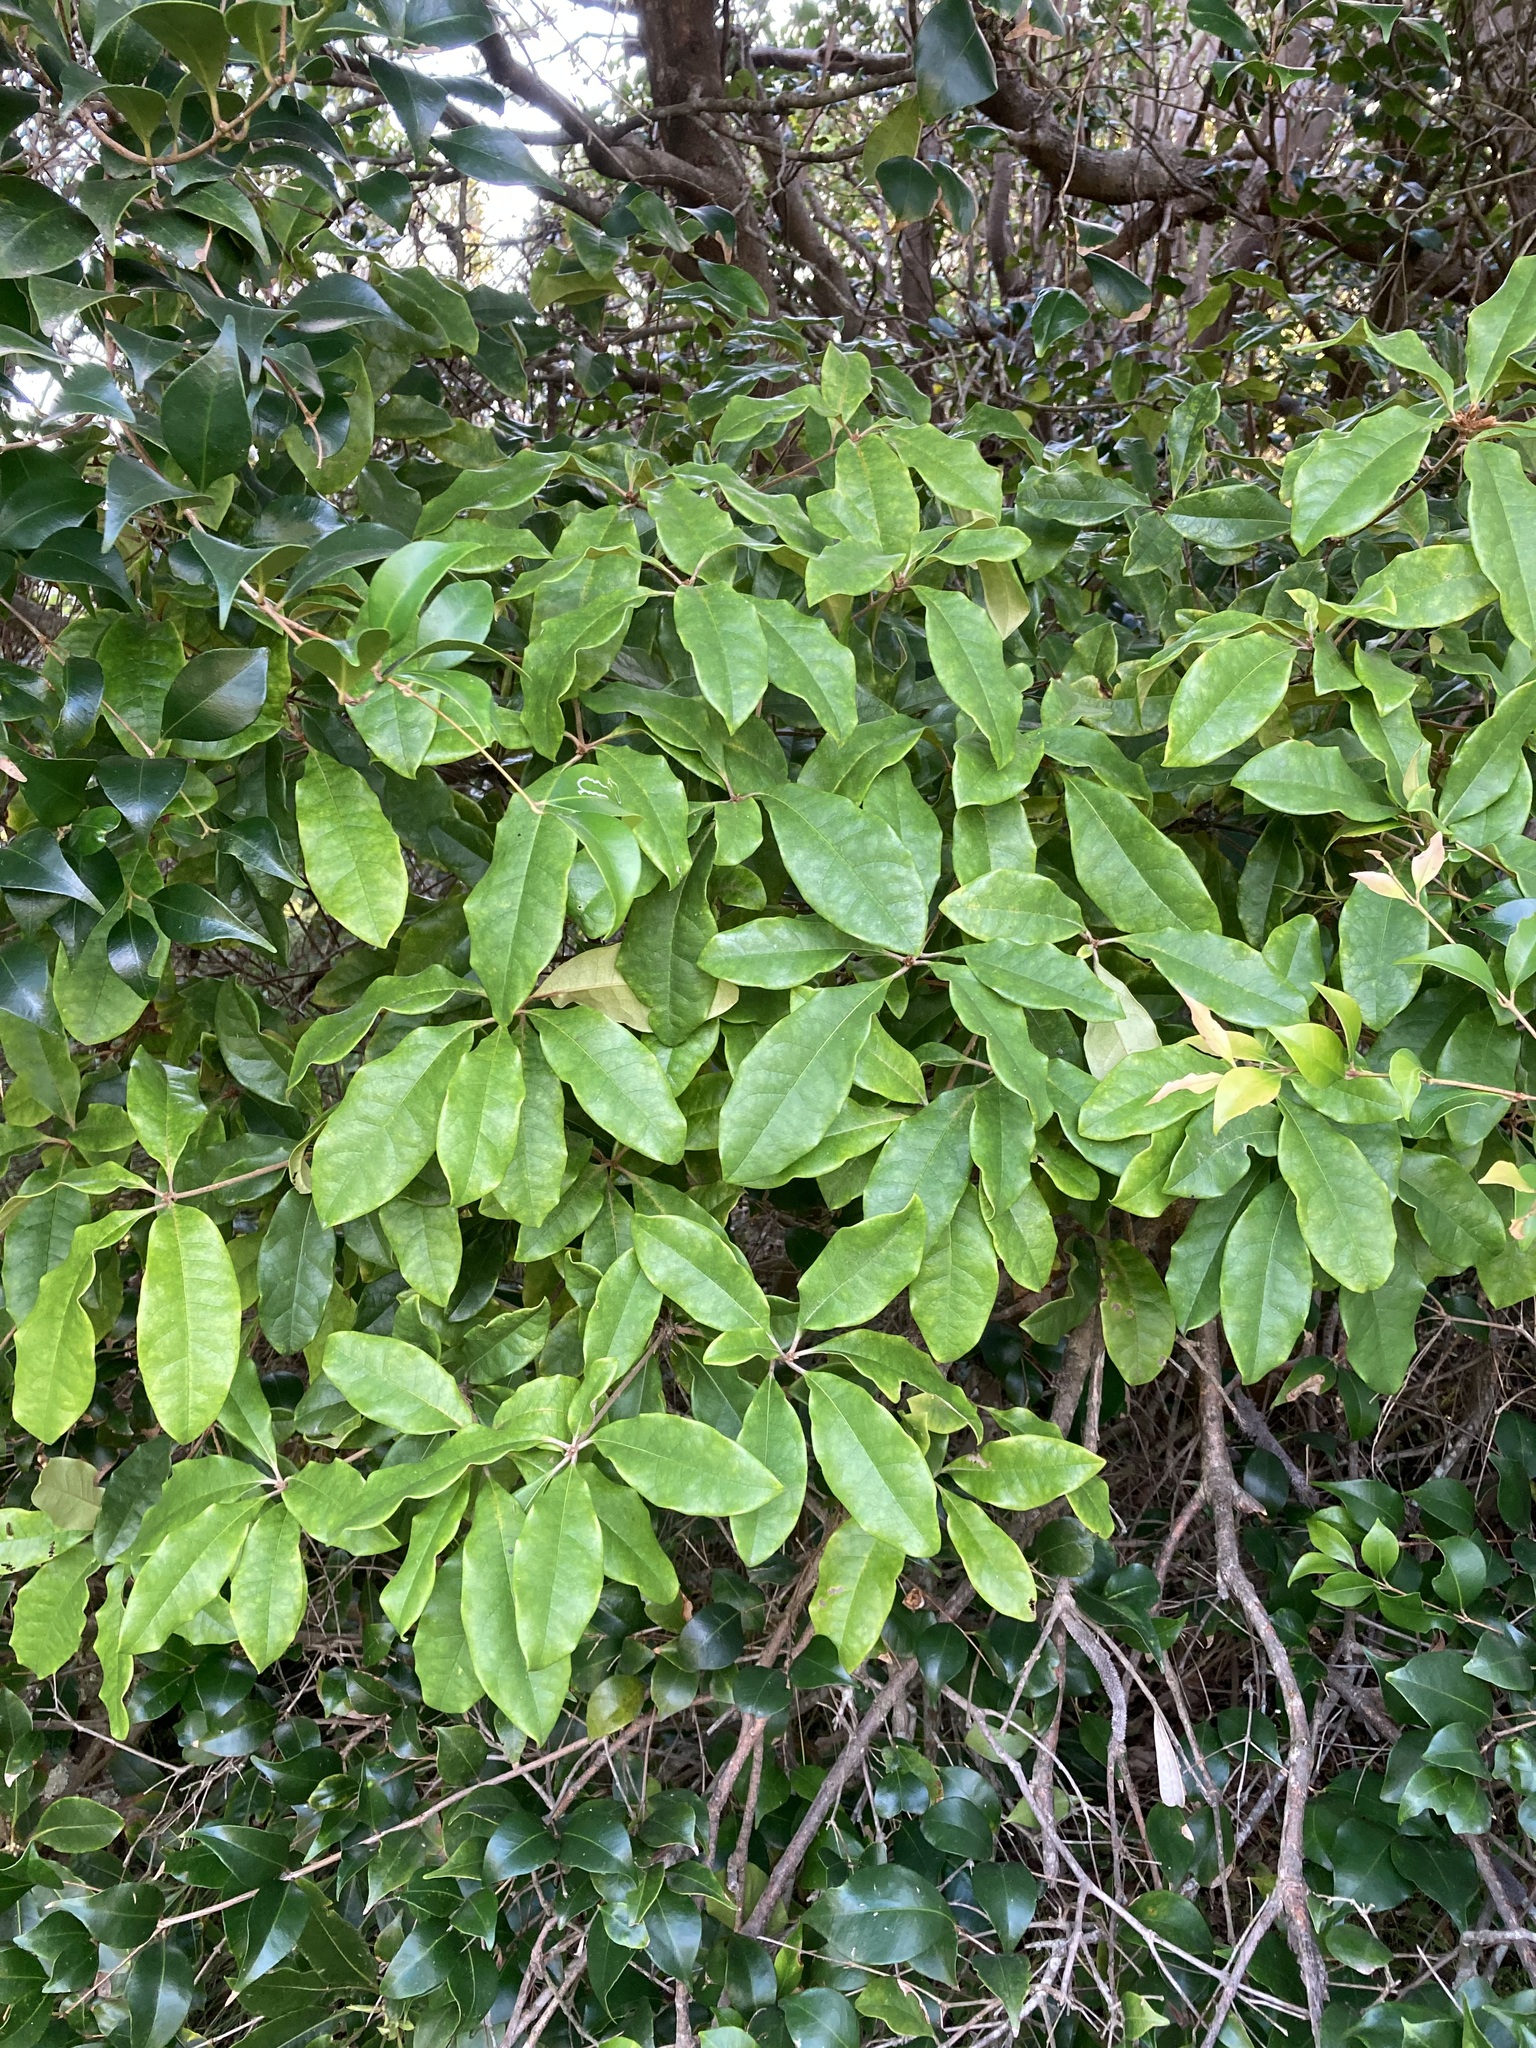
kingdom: Plantae
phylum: Tracheophyta
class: Magnoliopsida
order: Apiales
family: Pittosporaceae
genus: Pittosporum
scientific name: Pittosporum revolutum
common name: Brisbane-laurel
